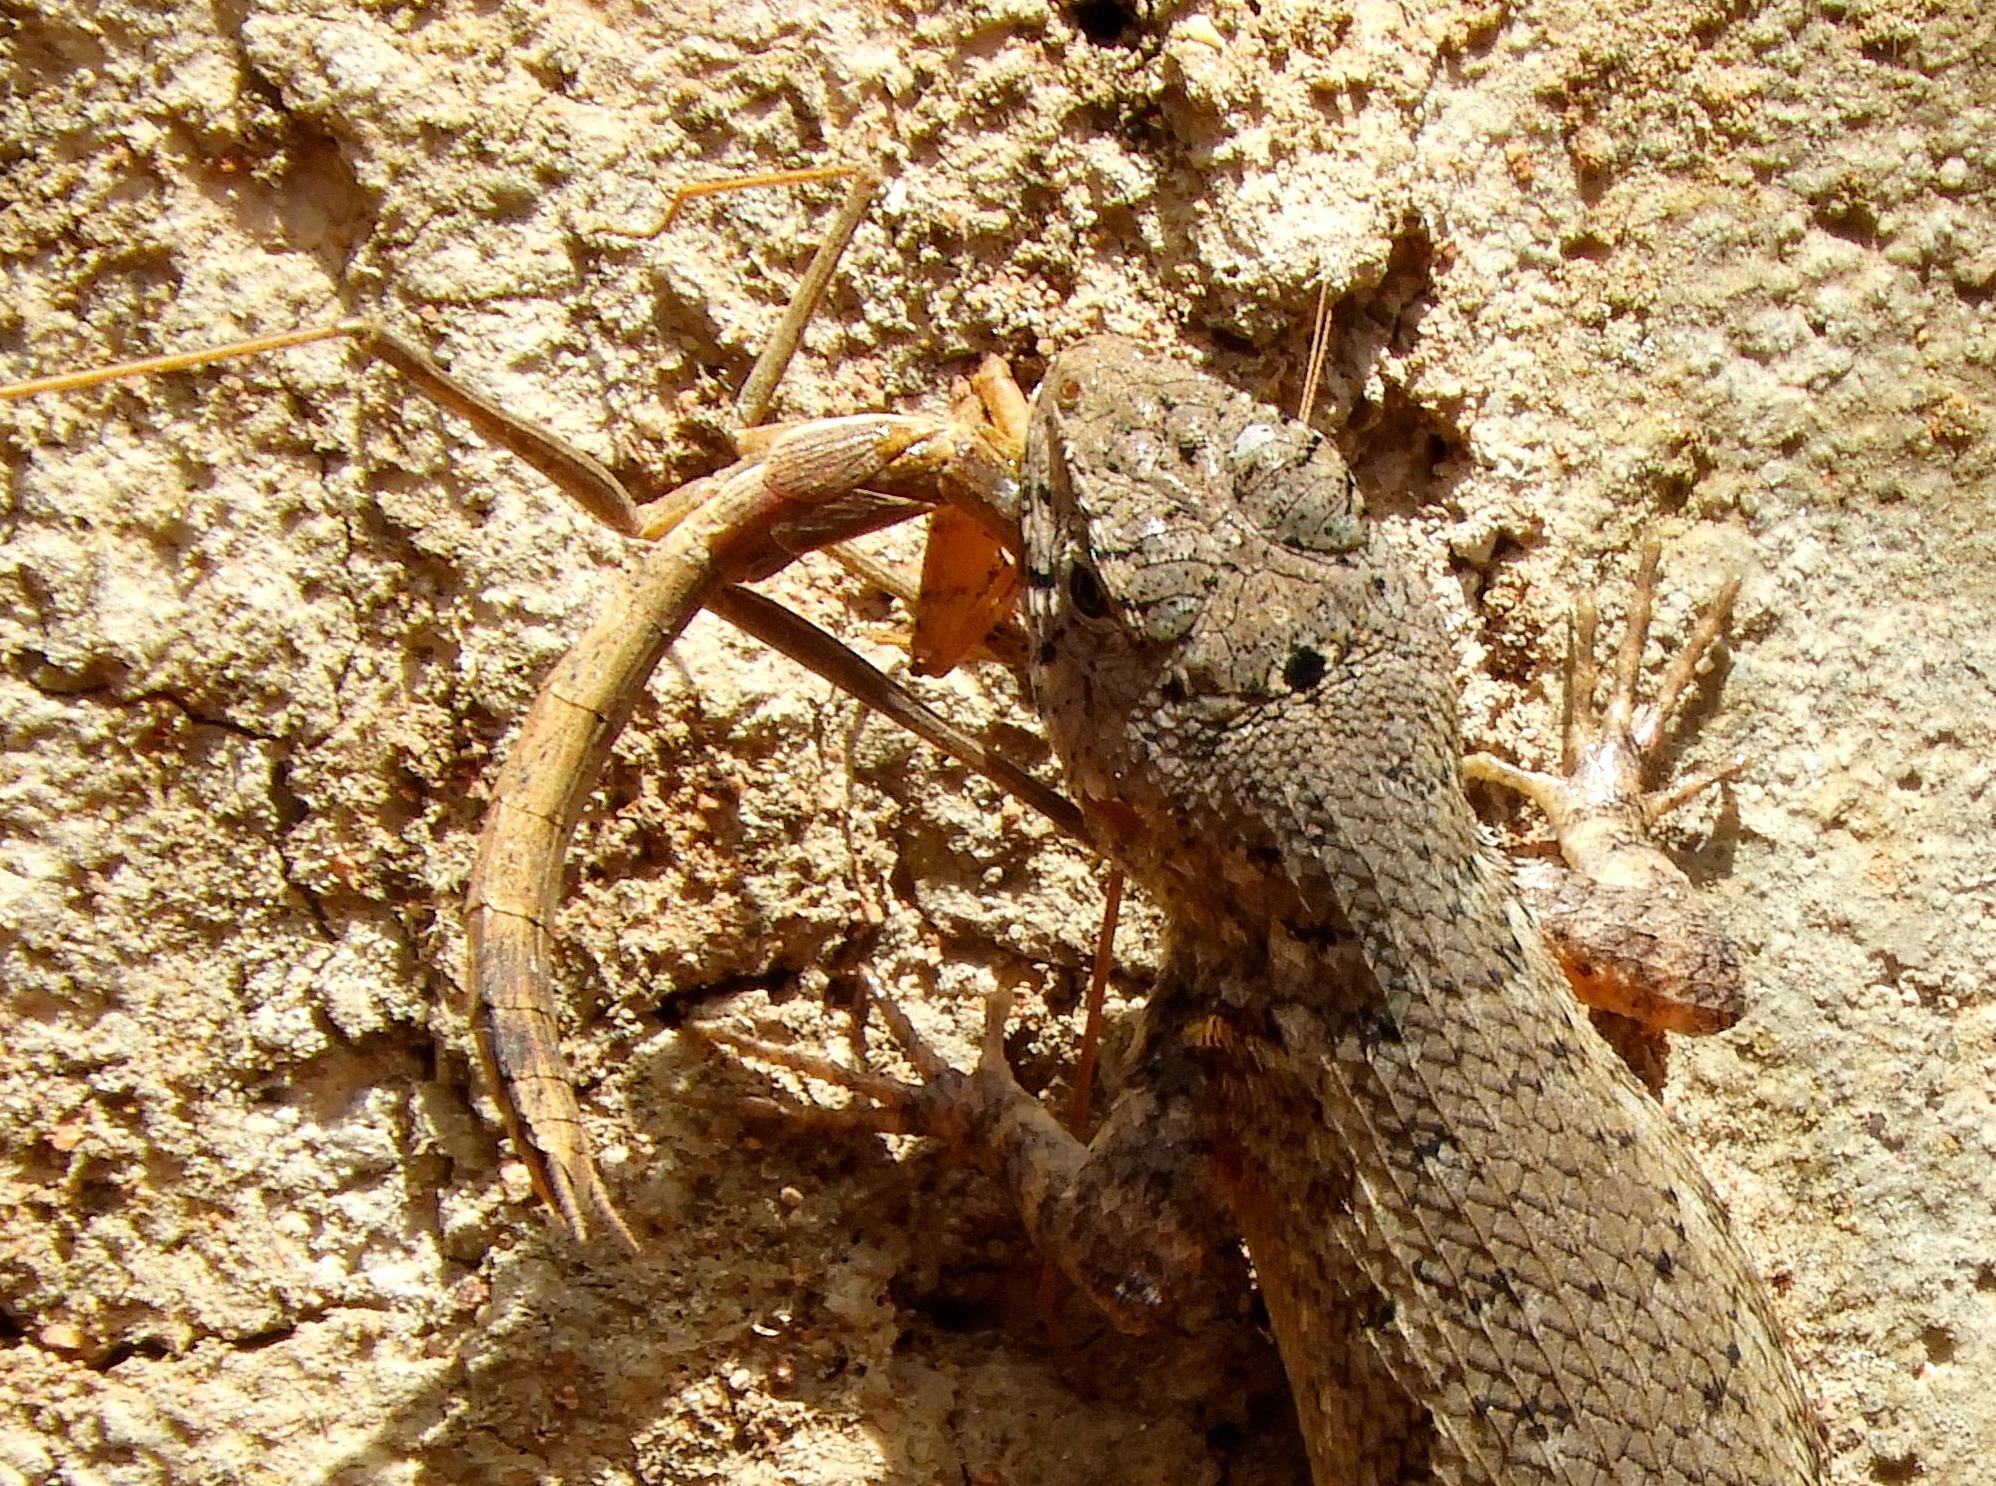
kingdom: Animalia
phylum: Chordata
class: Squamata
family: Phrynosomatidae
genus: Sceloporus
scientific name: Sceloporus nelsoni
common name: Nelson's spiny lizard
